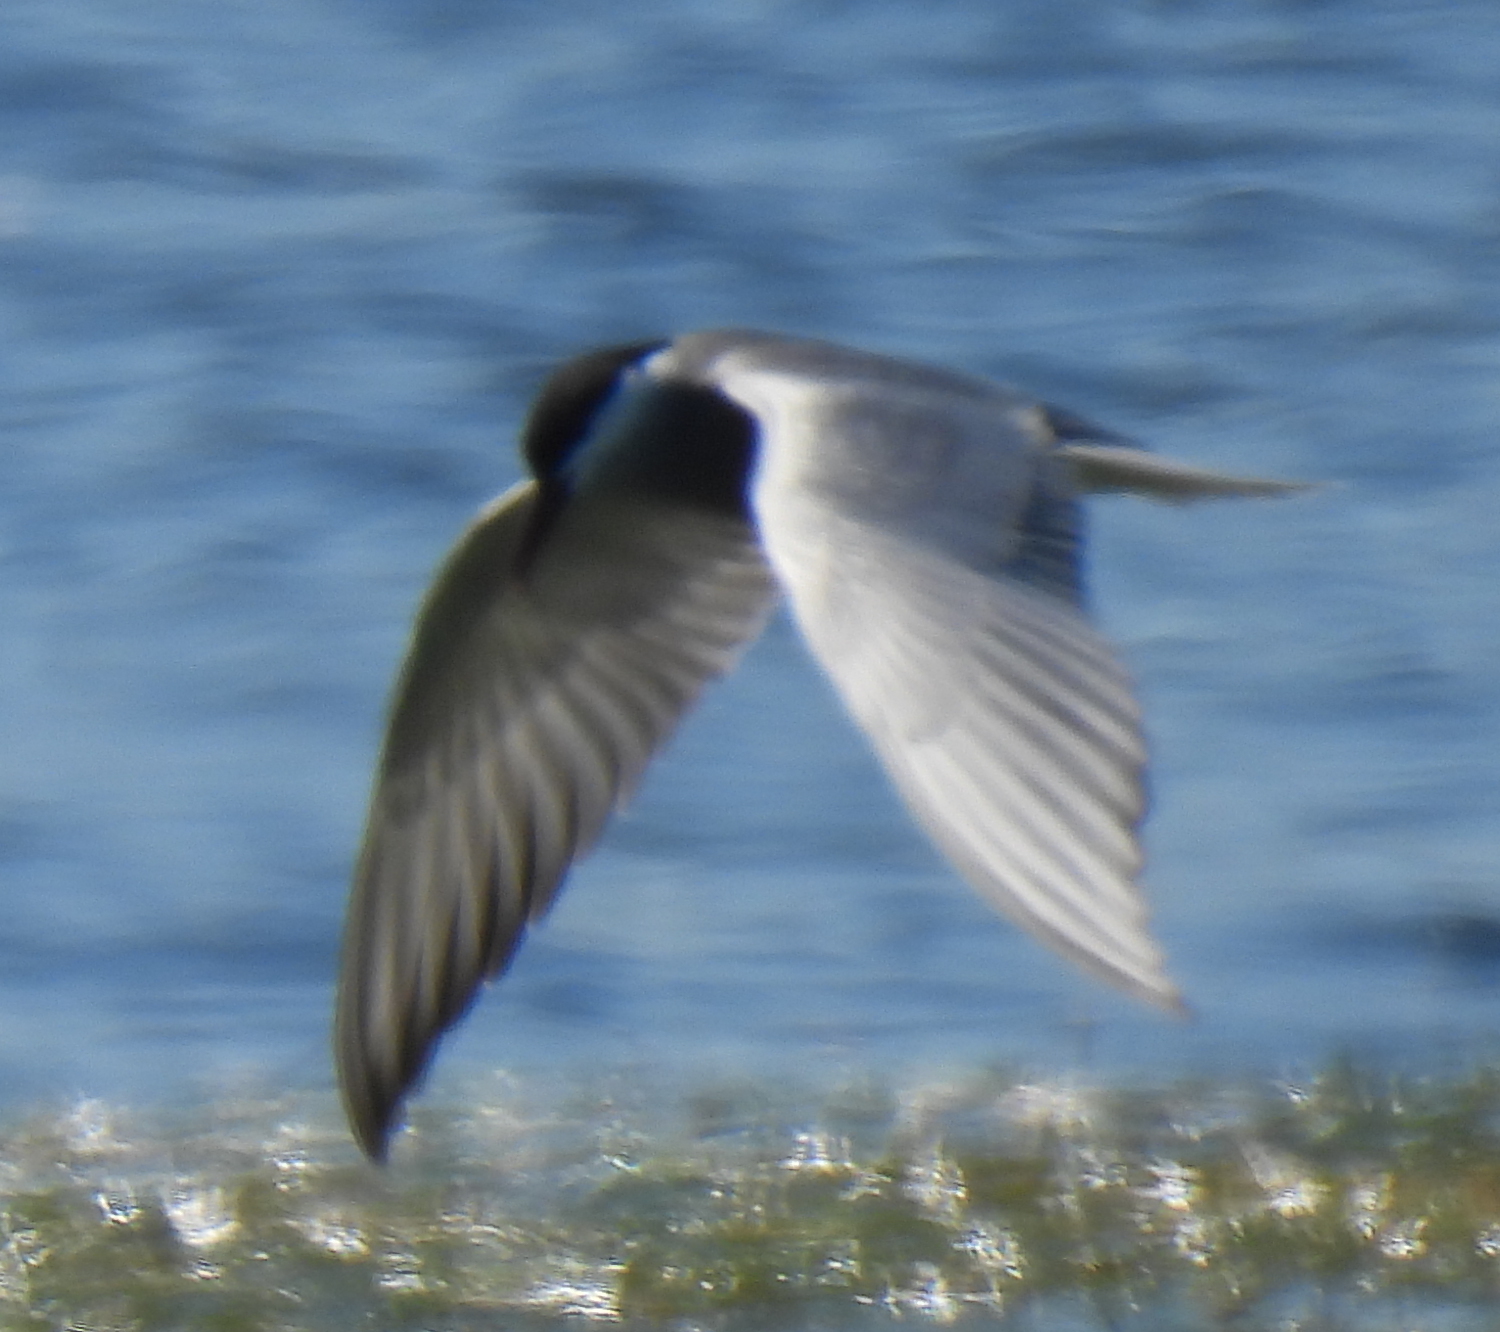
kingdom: Animalia
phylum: Chordata
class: Aves
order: Charadriiformes
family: Laridae
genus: Chlidonias
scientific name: Chlidonias hybrida
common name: Whiskered tern
